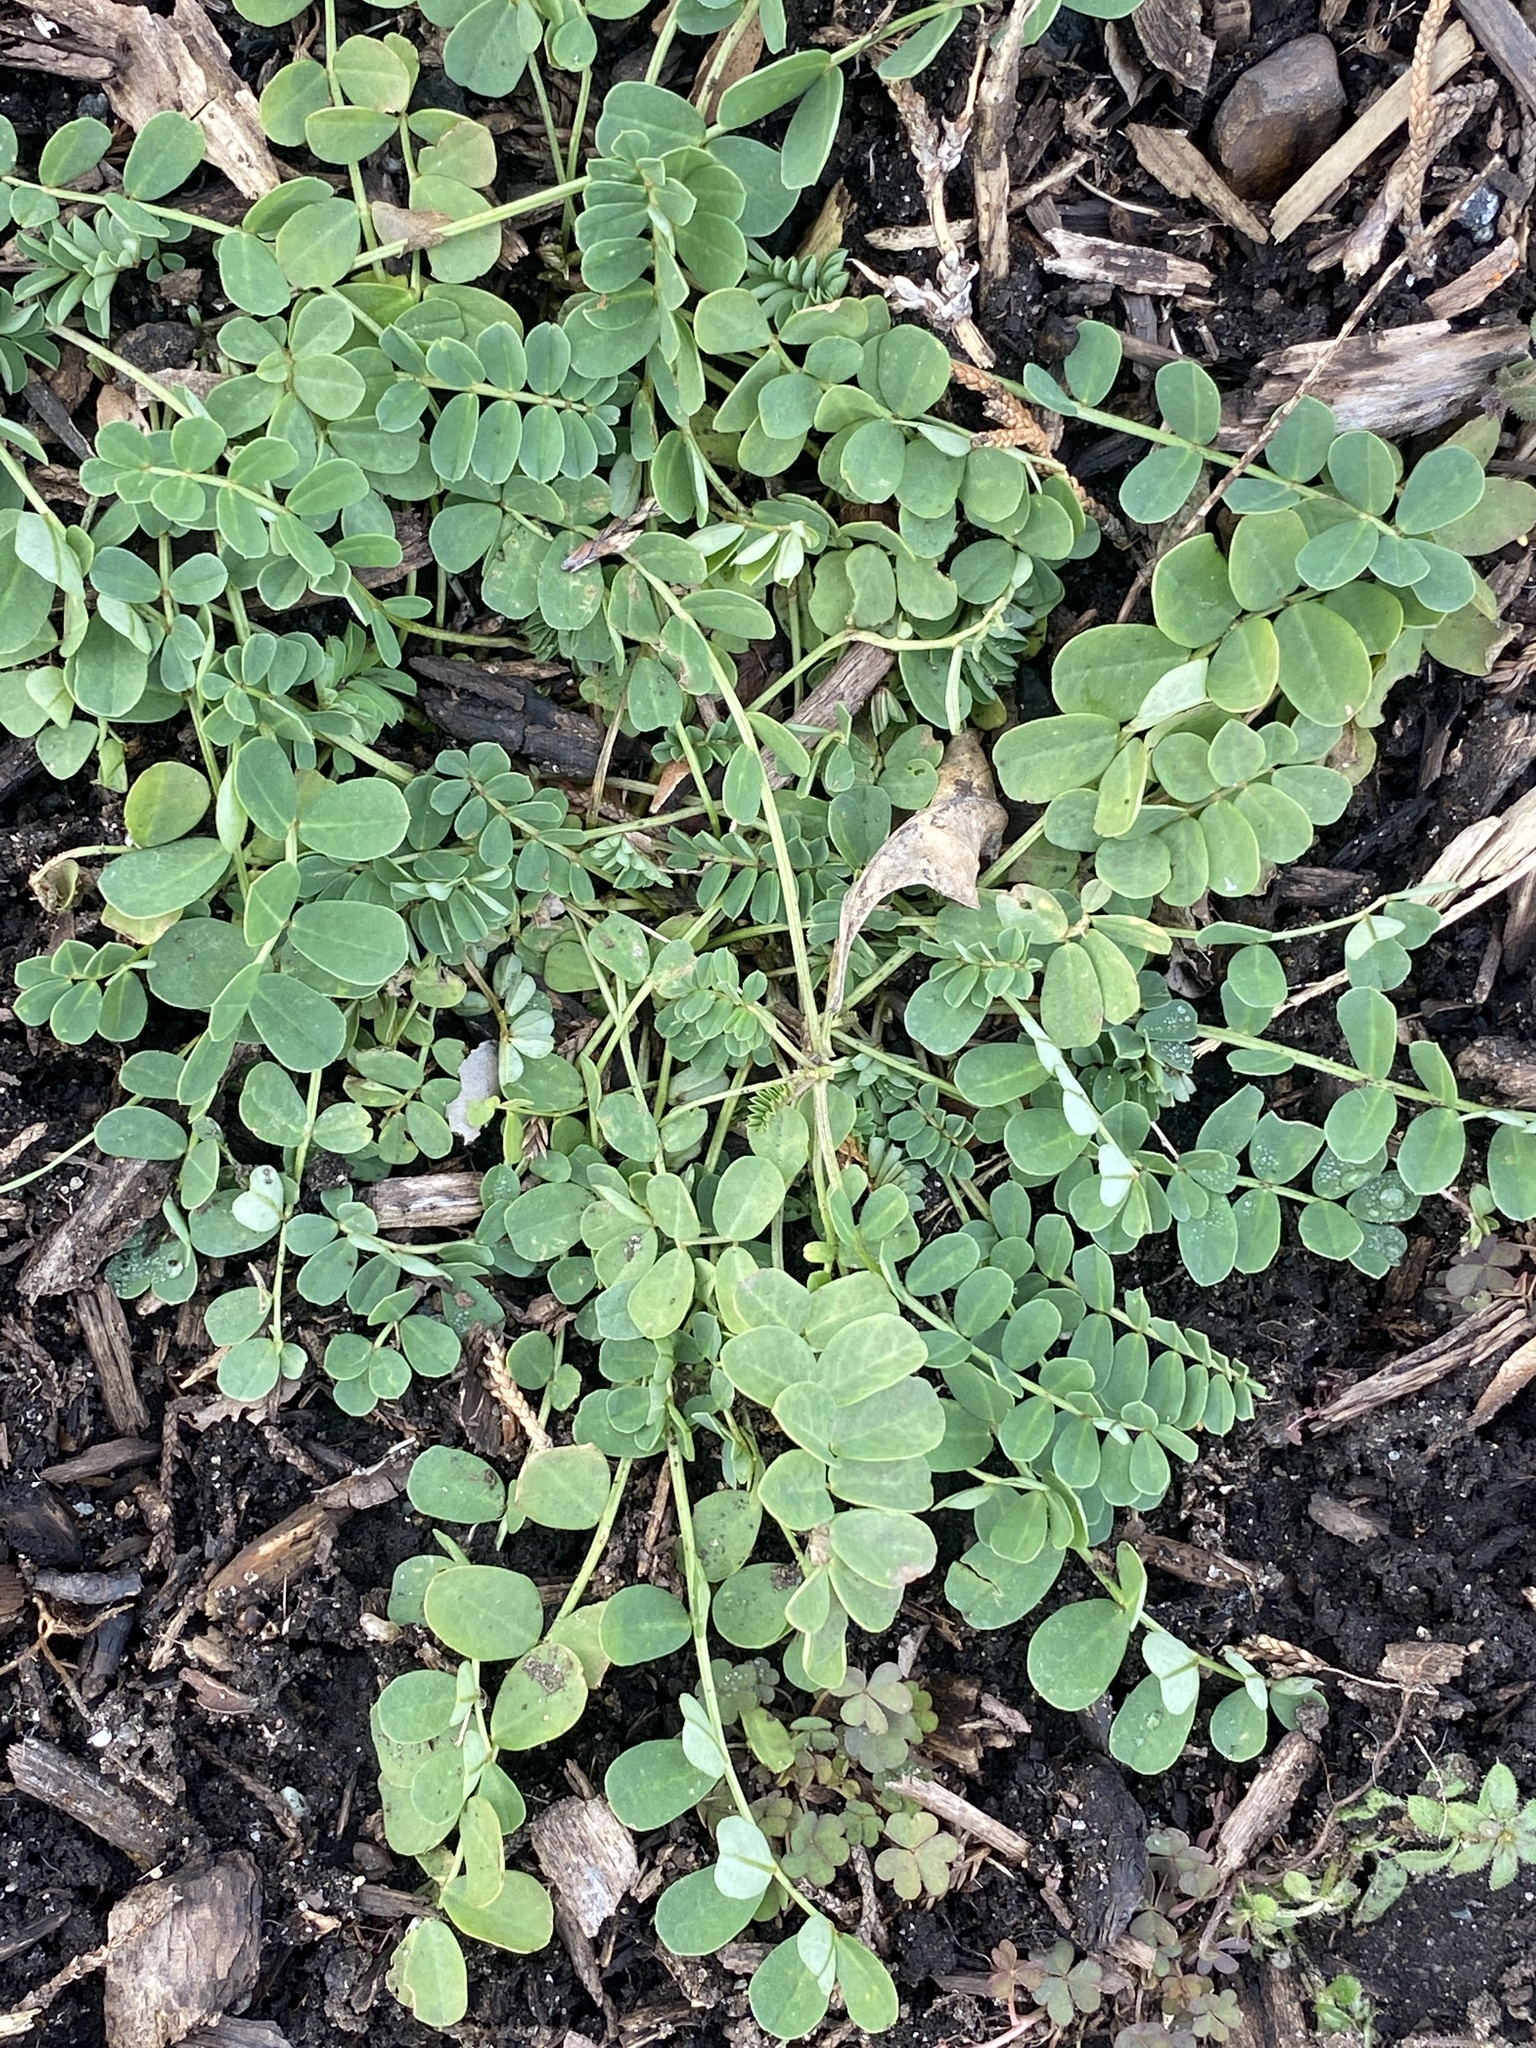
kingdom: Plantae
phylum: Tracheophyta
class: Magnoliopsida
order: Fabales
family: Fabaceae
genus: Coronilla
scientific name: Coronilla varia
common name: Crownvetch
